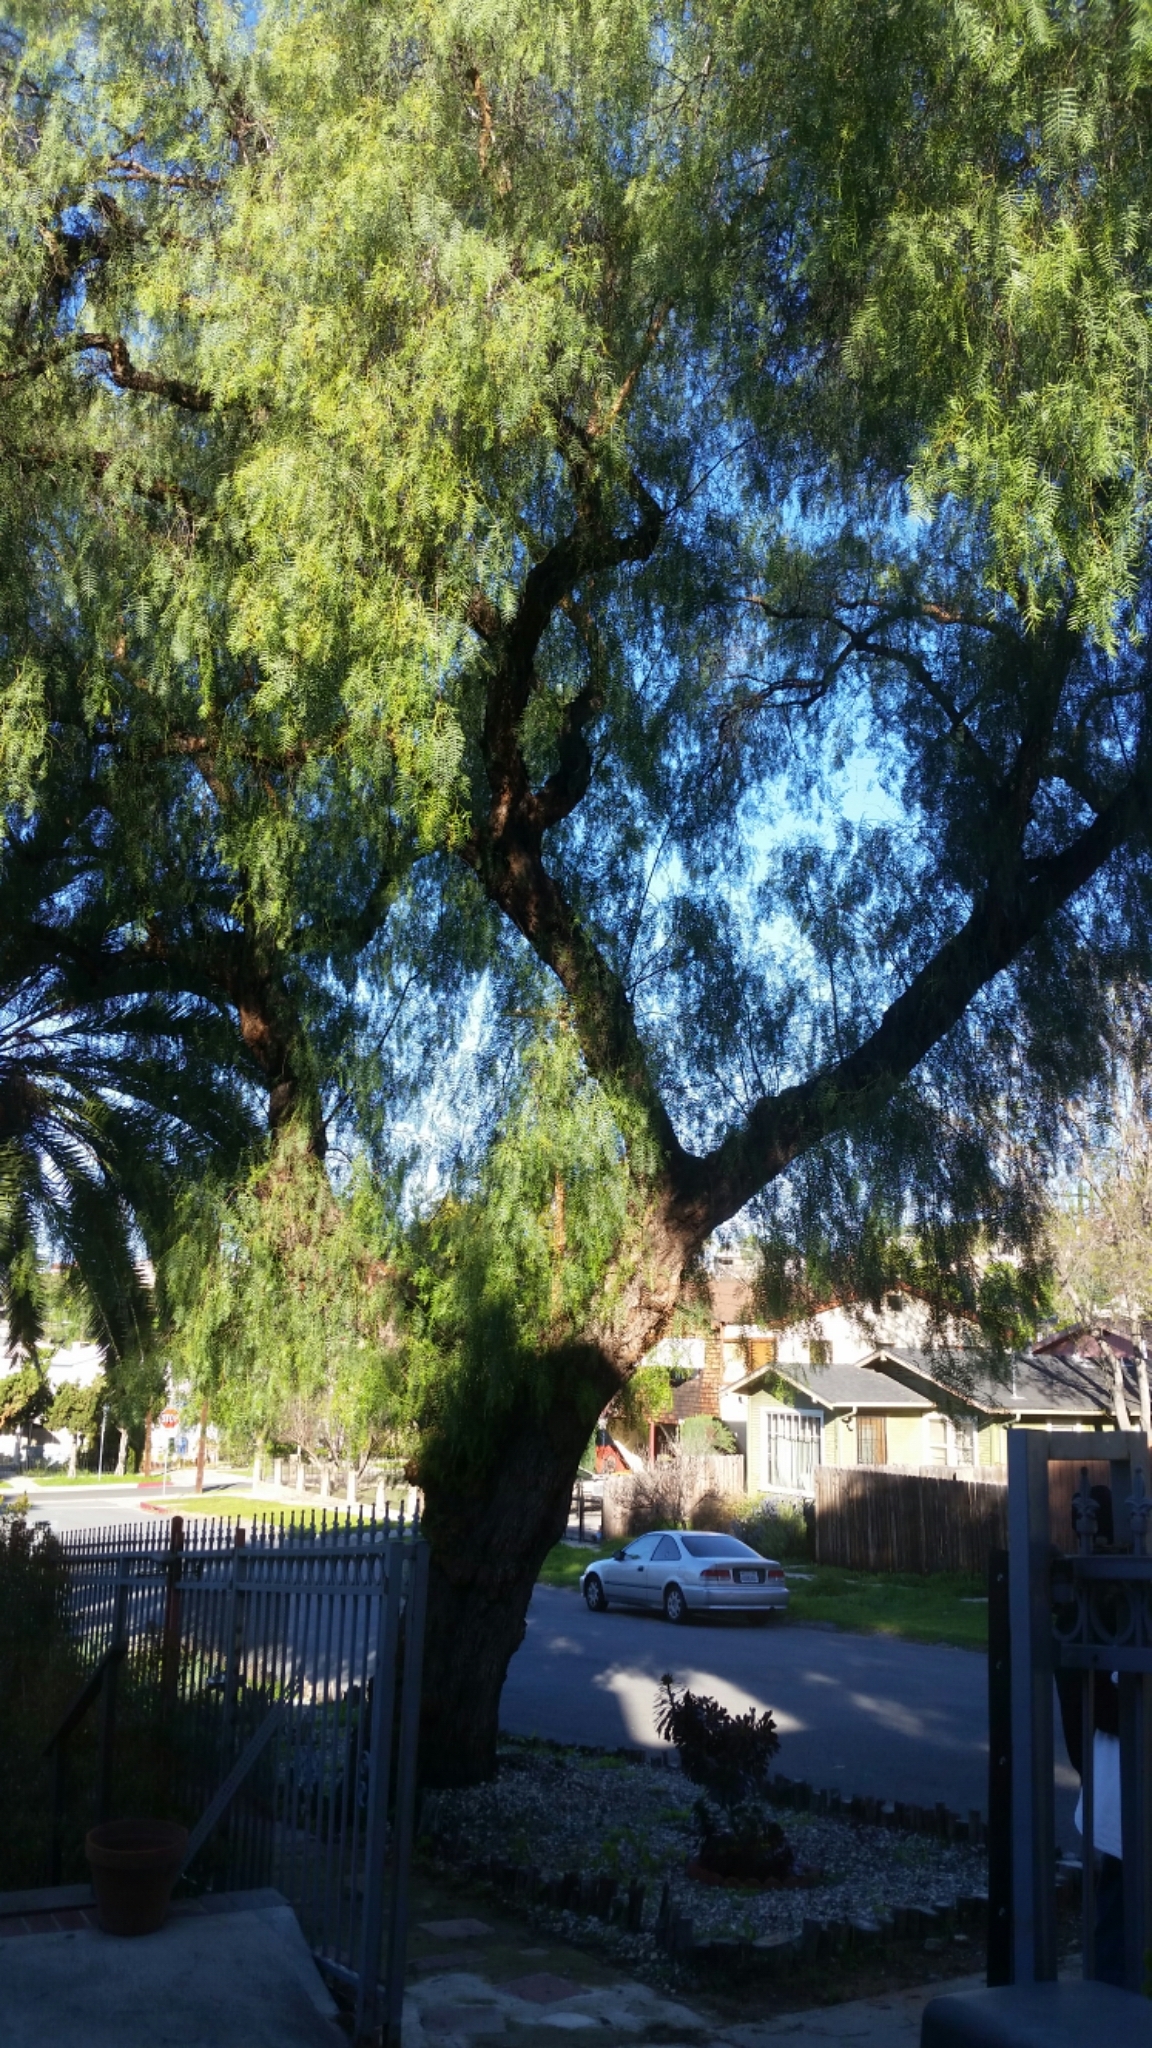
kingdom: Plantae
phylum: Tracheophyta
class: Magnoliopsida
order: Sapindales
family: Anacardiaceae
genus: Schinus
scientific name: Schinus molle
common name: Peruvian peppertree
